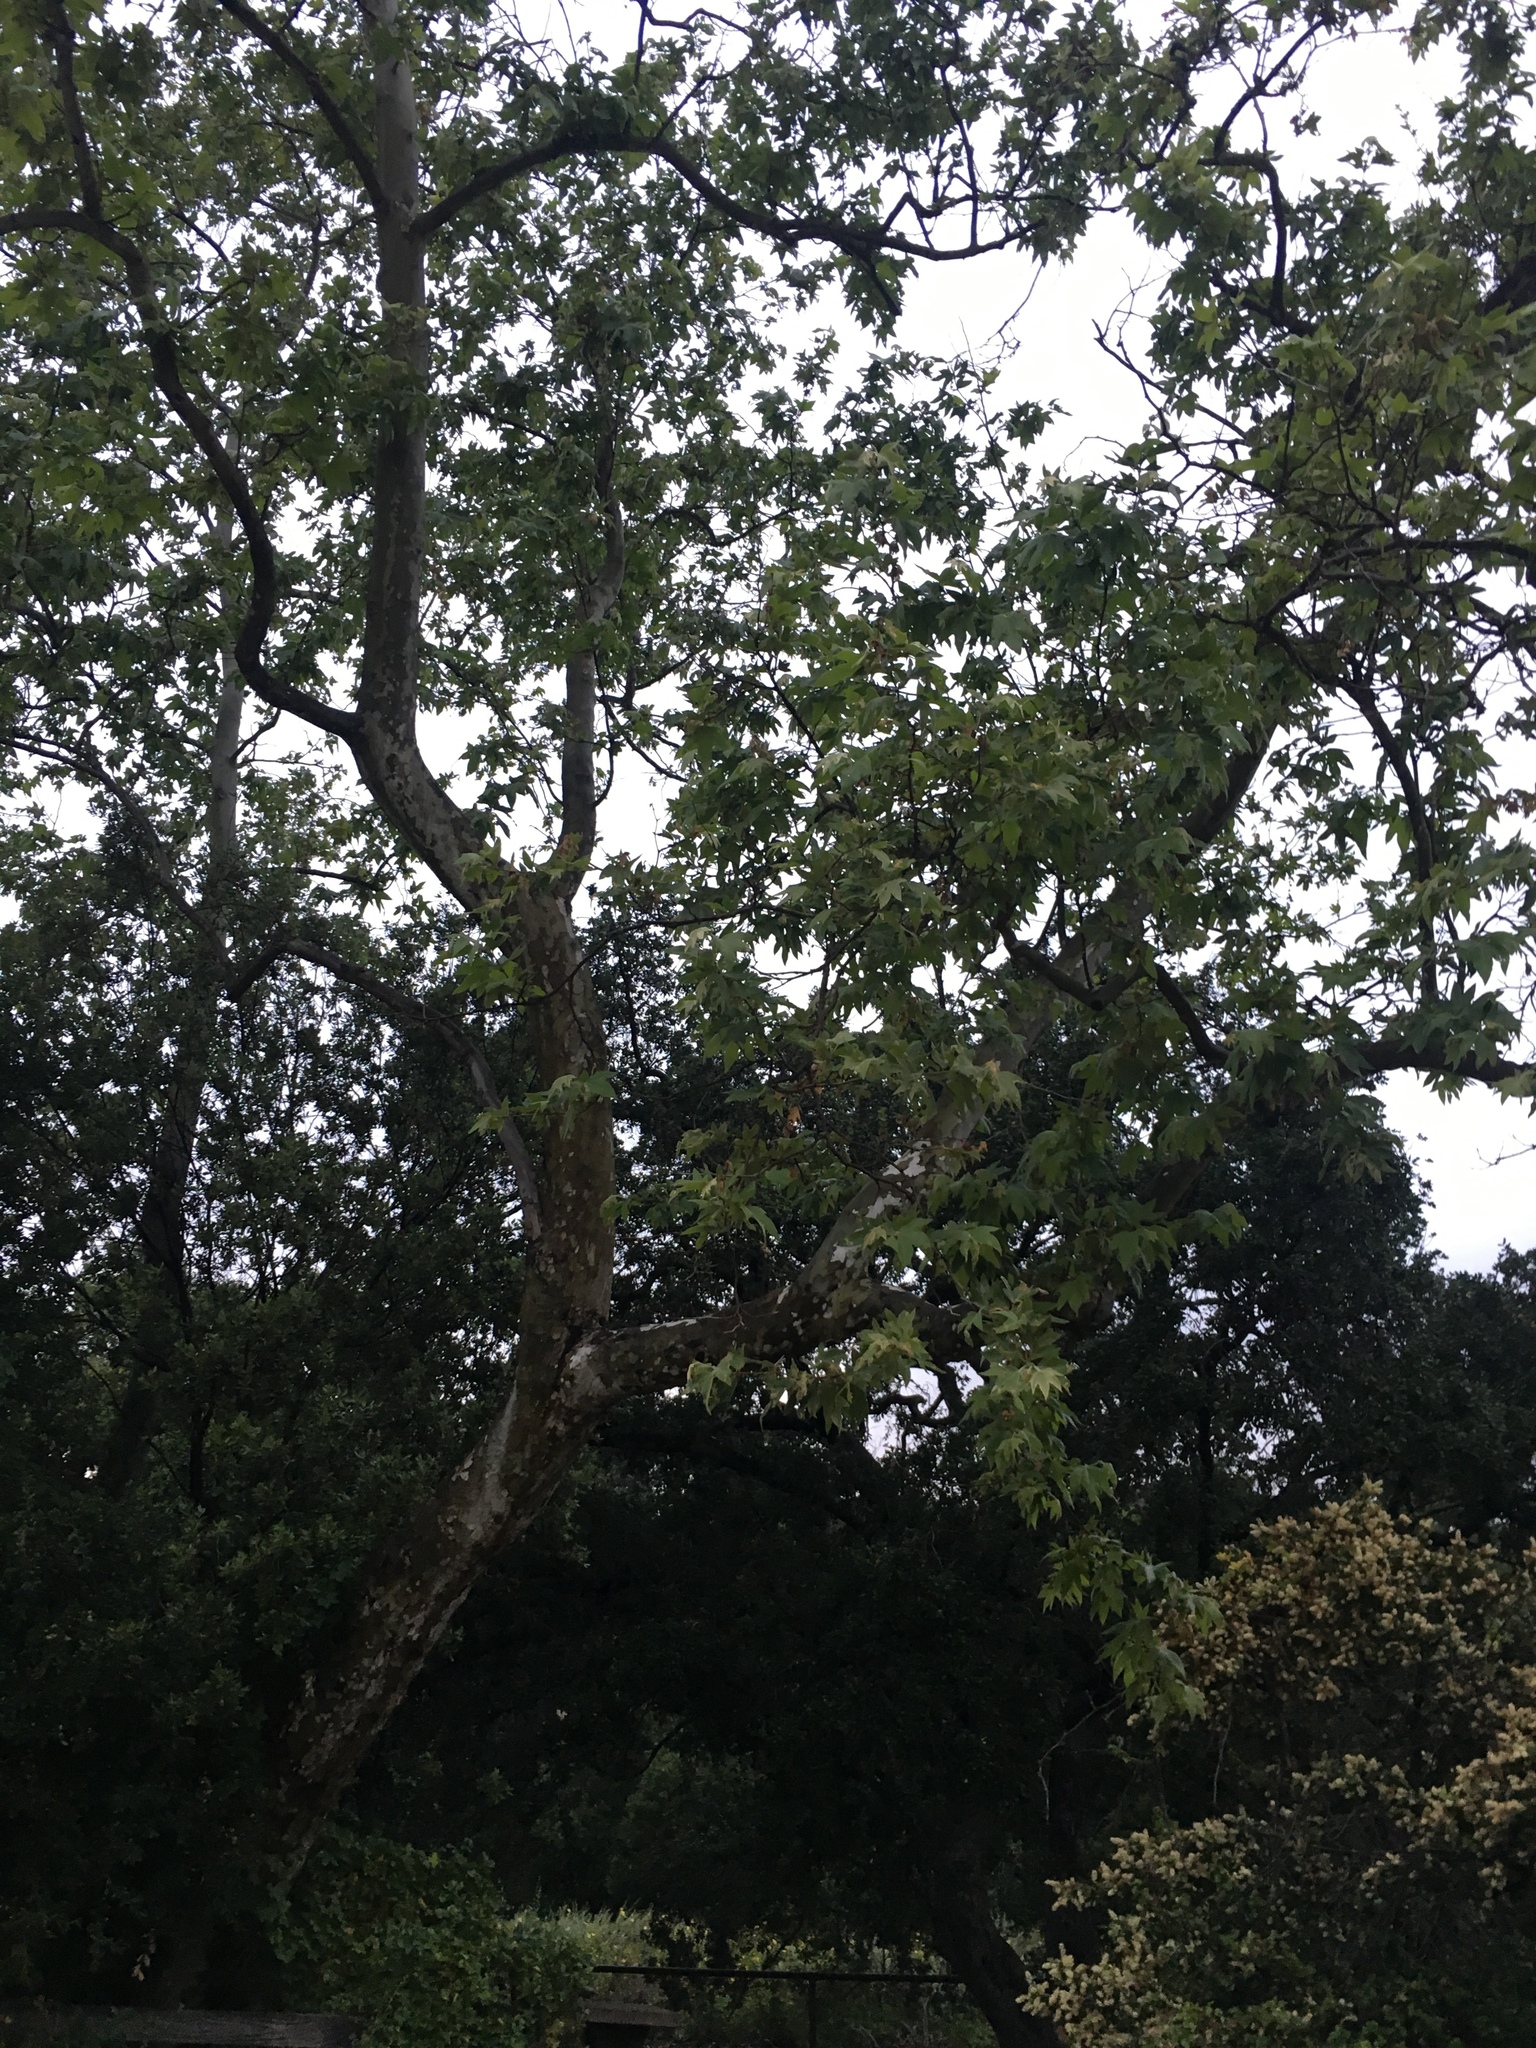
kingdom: Plantae
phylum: Tracheophyta
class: Magnoliopsida
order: Proteales
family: Platanaceae
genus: Platanus
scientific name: Platanus racemosa
